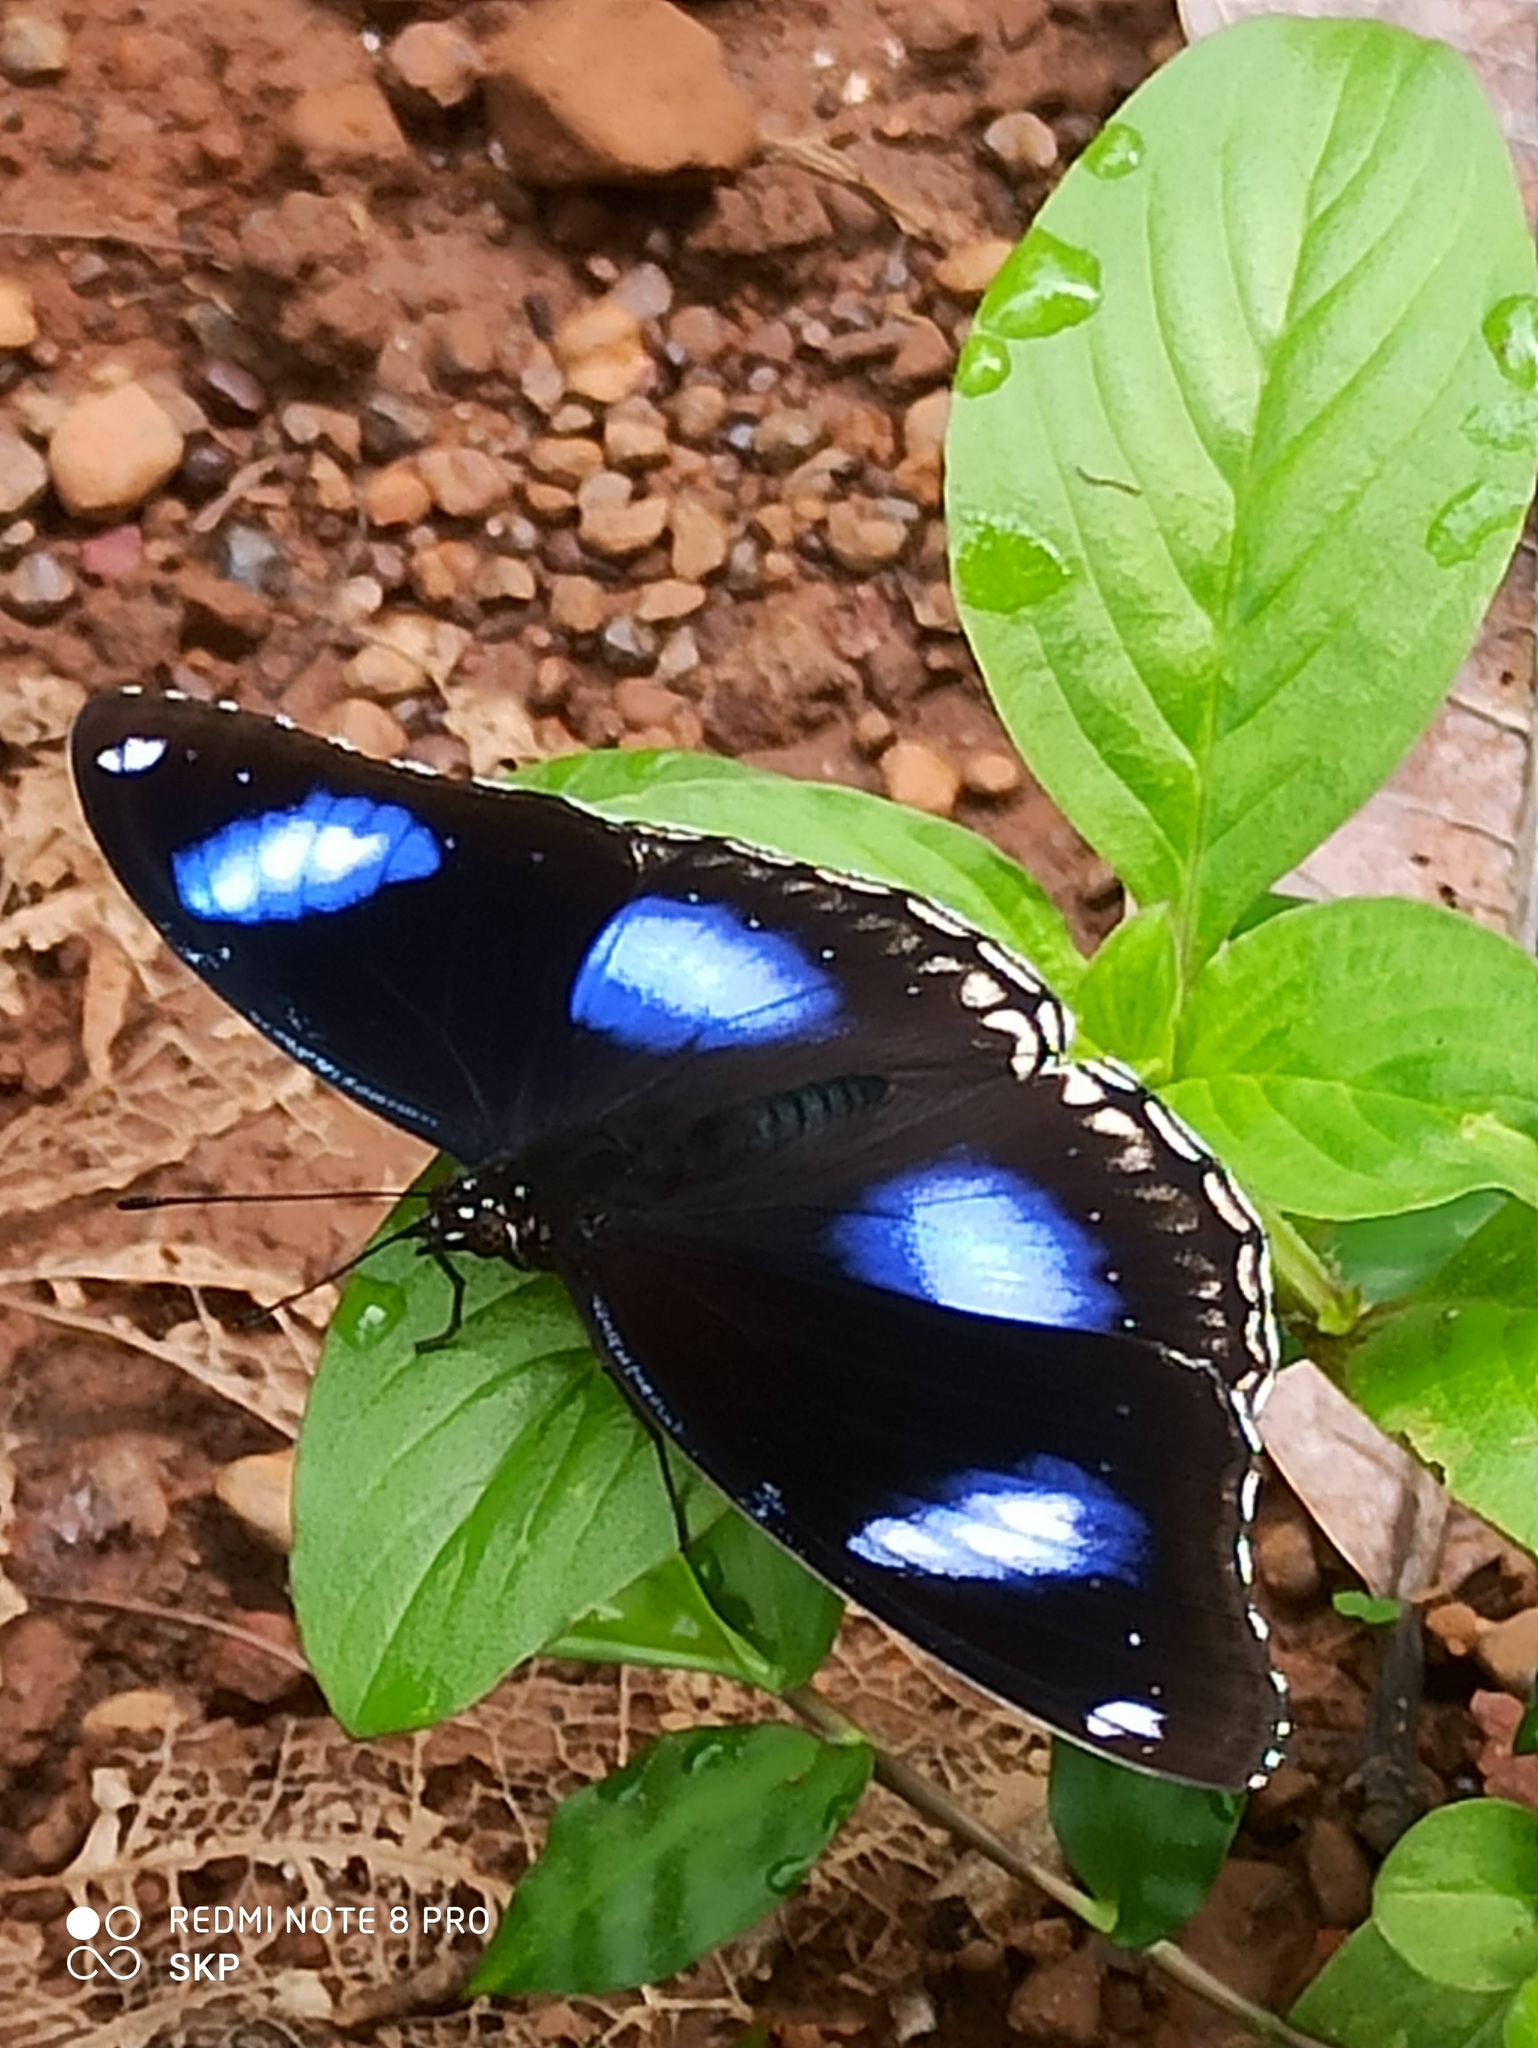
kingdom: Animalia
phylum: Arthropoda
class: Insecta
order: Lepidoptera
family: Nymphalidae
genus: Hypolimnas
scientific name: Hypolimnas bolina
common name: Great eggfly
